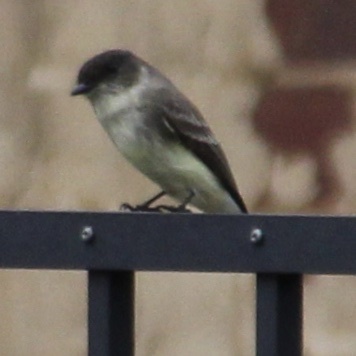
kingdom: Animalia
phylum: Chordata
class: Aves
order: Passeriformes
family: Tyrannidae
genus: Sayornis
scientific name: Sayornis phoebe
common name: Eastern phoebe
